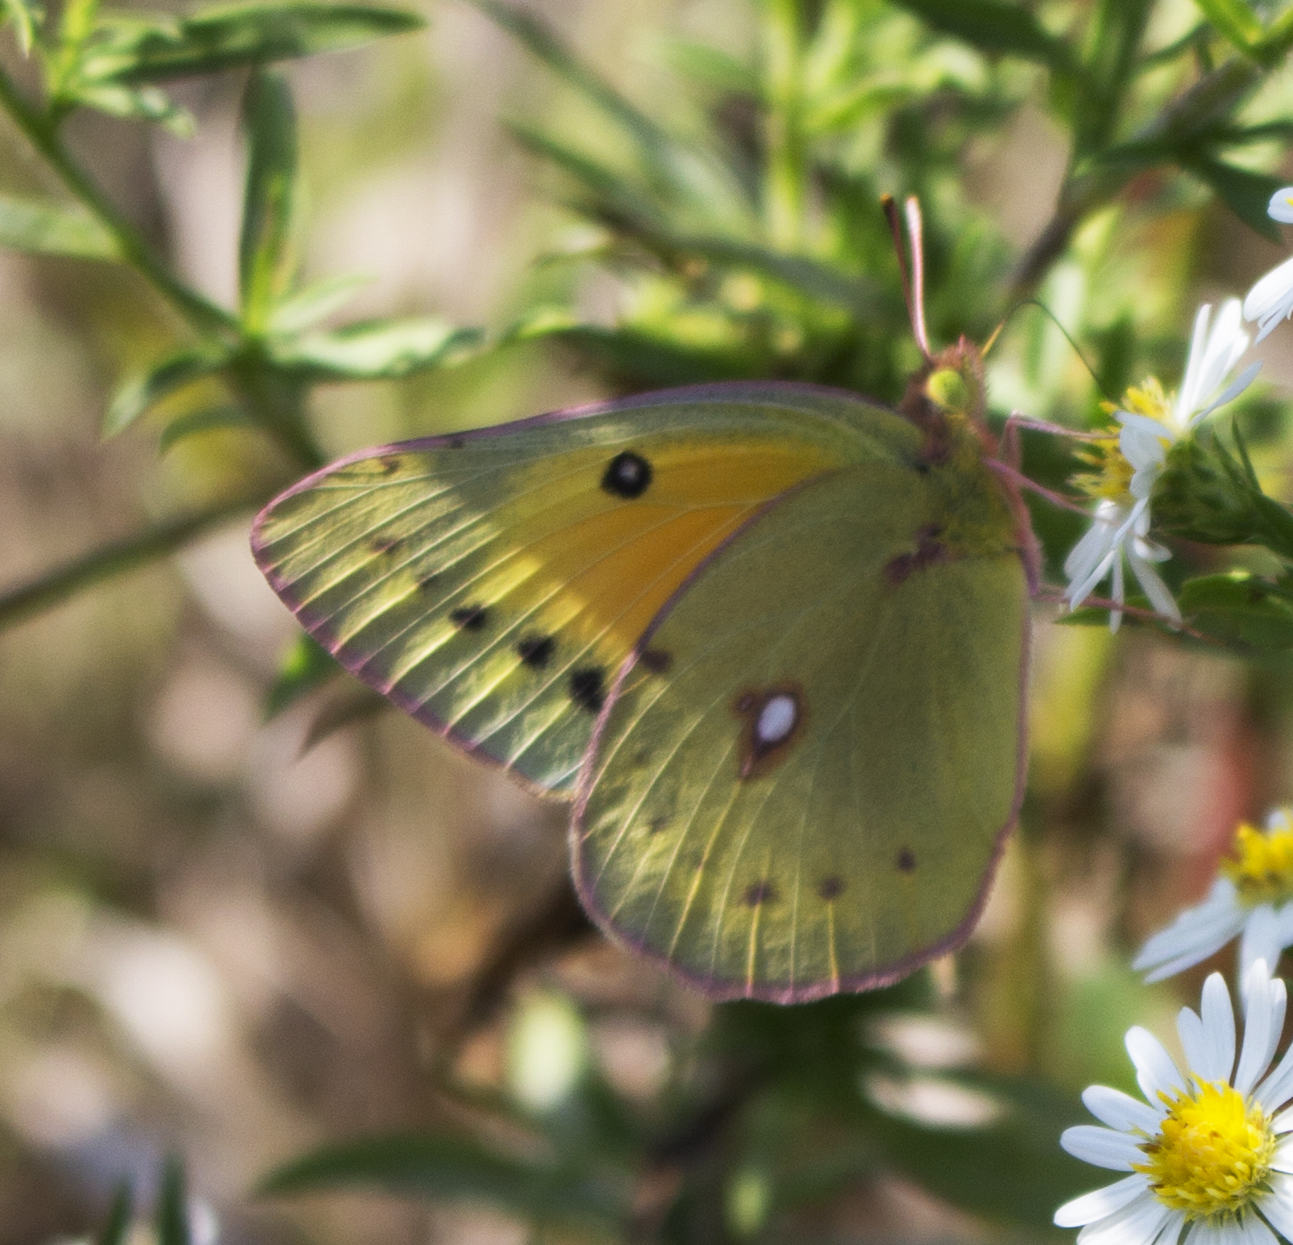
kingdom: Animalia
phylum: Arthropoda
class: Insecta
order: Lepidoptera
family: Pieridae
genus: Colias
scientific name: Colias eurytheme
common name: Alfalfa butterfly
